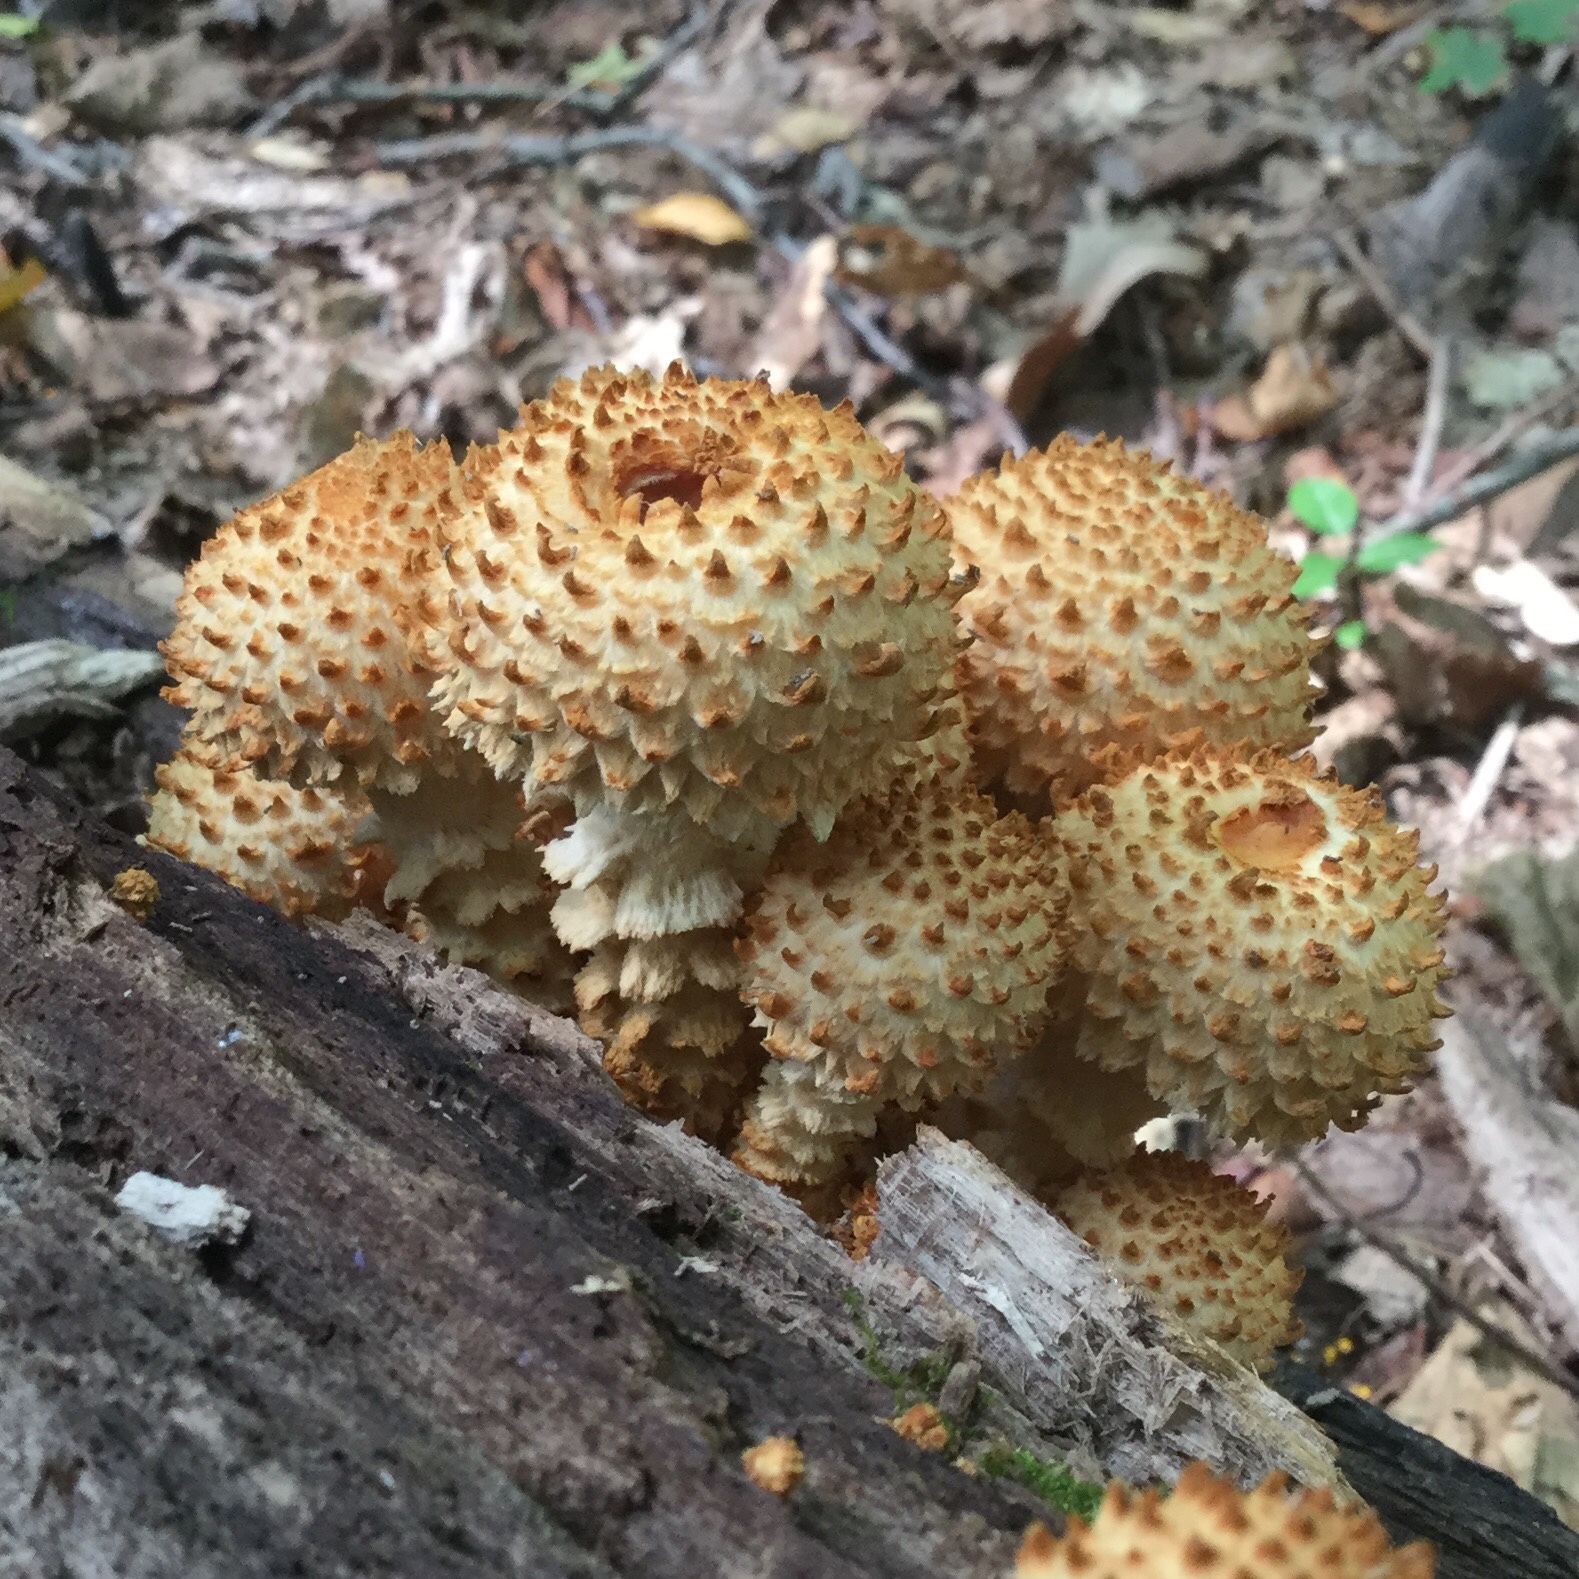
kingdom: Fungi
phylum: Basidiomycota
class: Agaricomycetes
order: Agaricales
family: Strophariaceae
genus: Pholiota
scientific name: Pholiota squarrosa
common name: Shaggy pholiota
